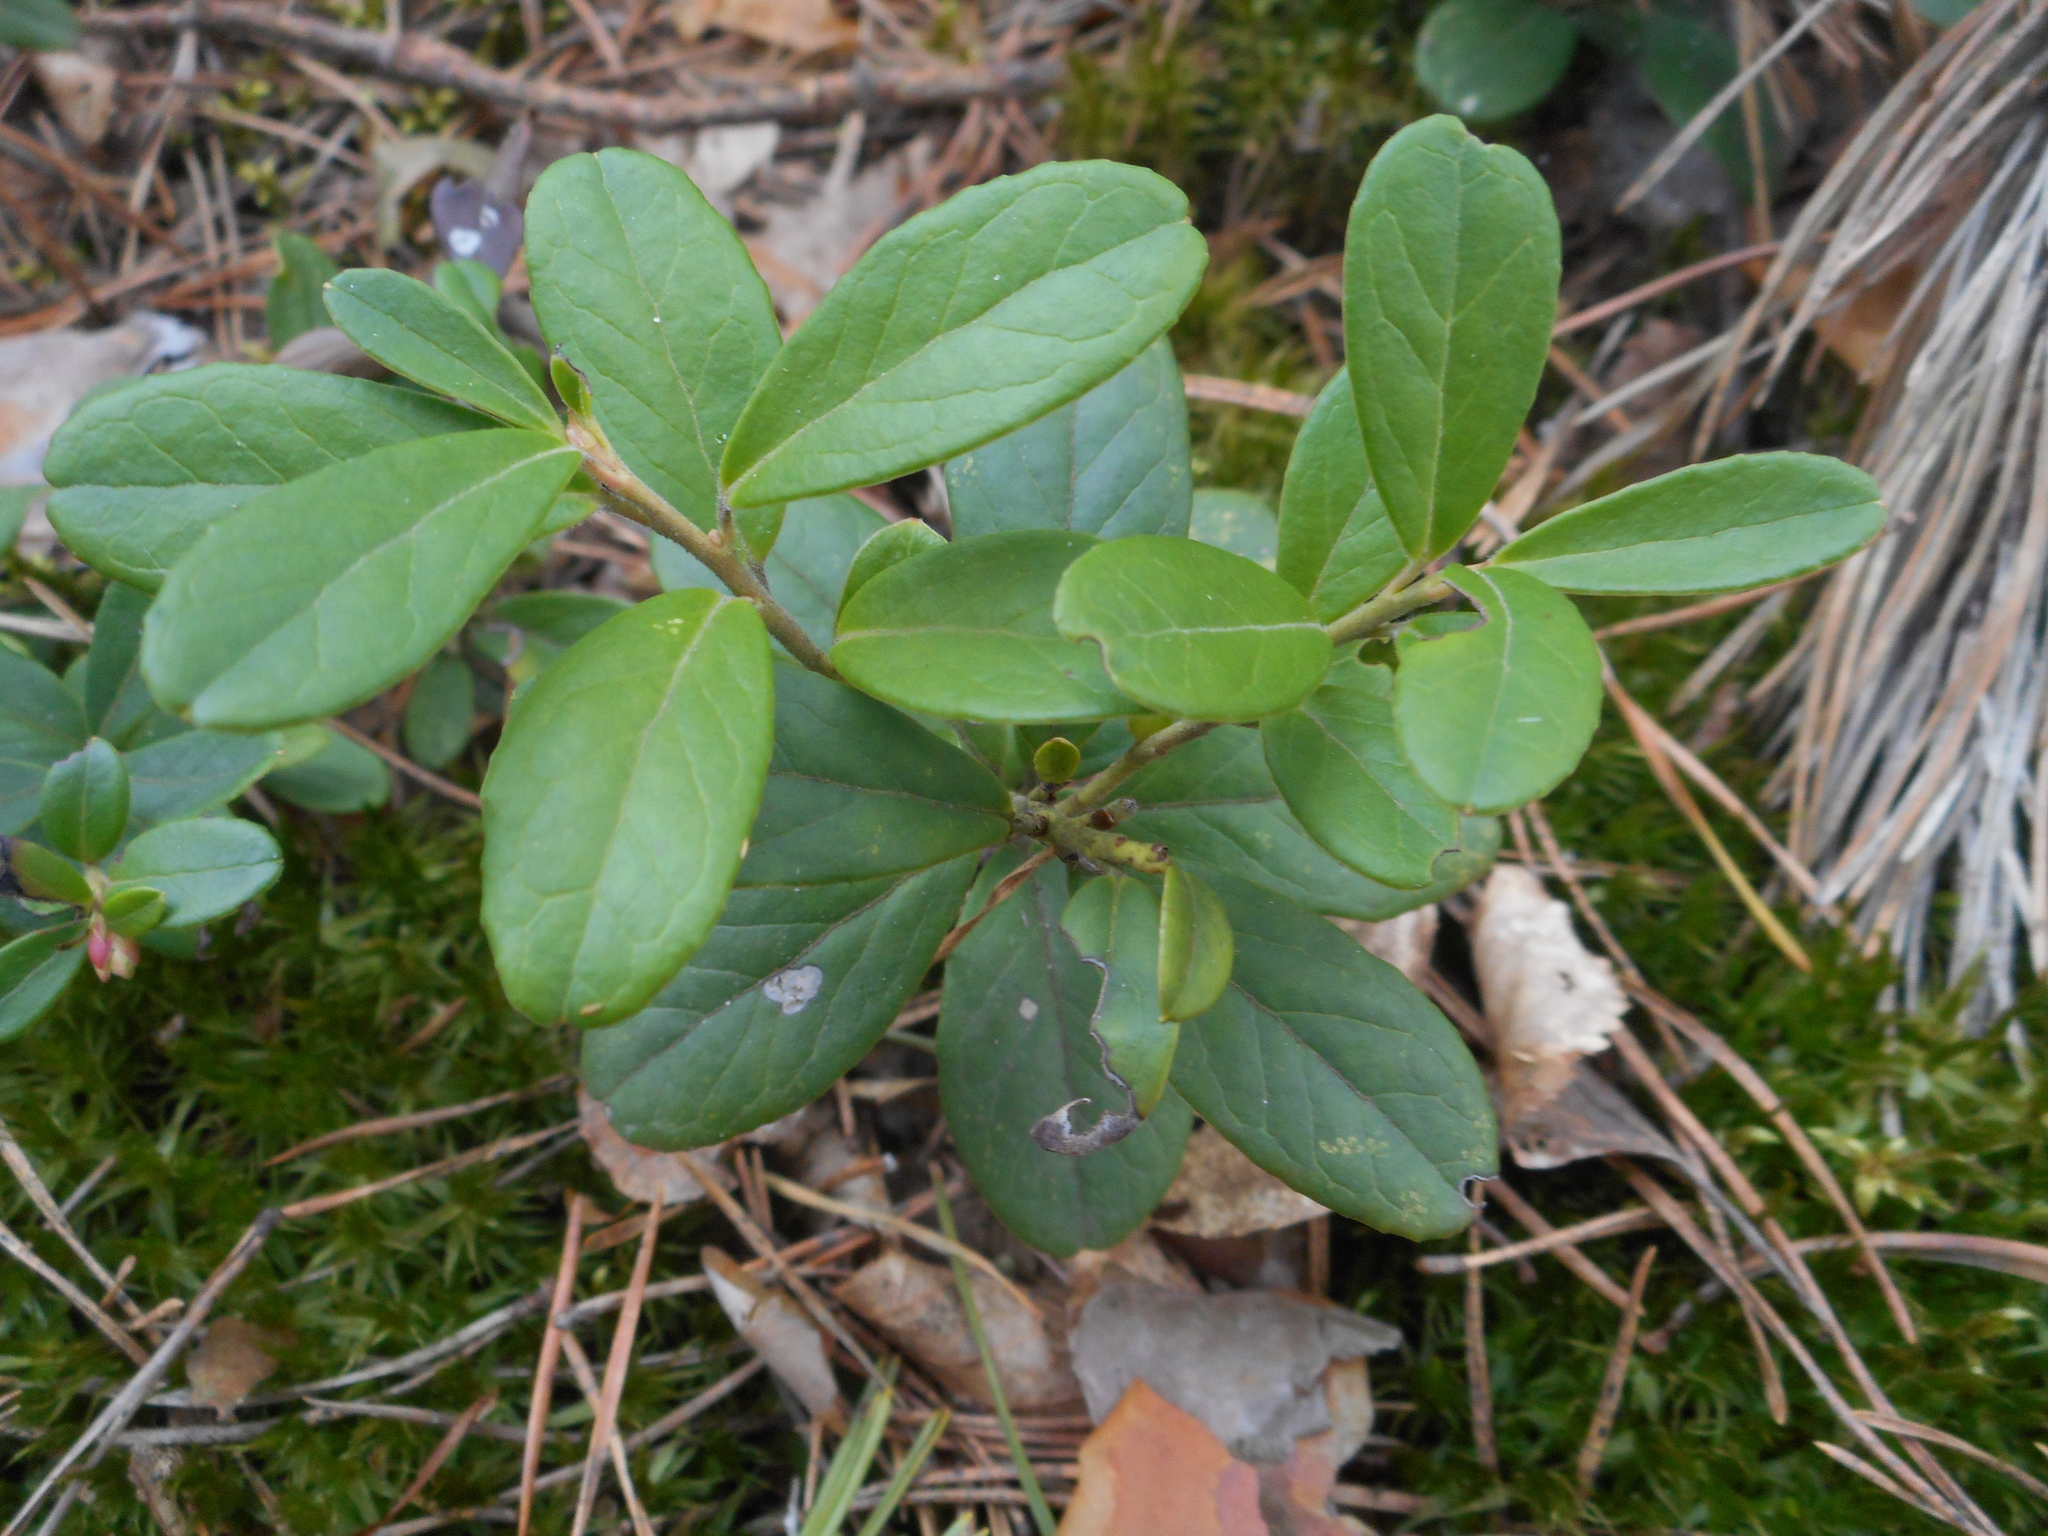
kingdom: Plantae
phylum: Tracheophyta
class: Magnoliopsida
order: Ericales
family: Ericaceae
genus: Vaccinium
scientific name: Vaccinium vitis-idaea
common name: Cowberry
